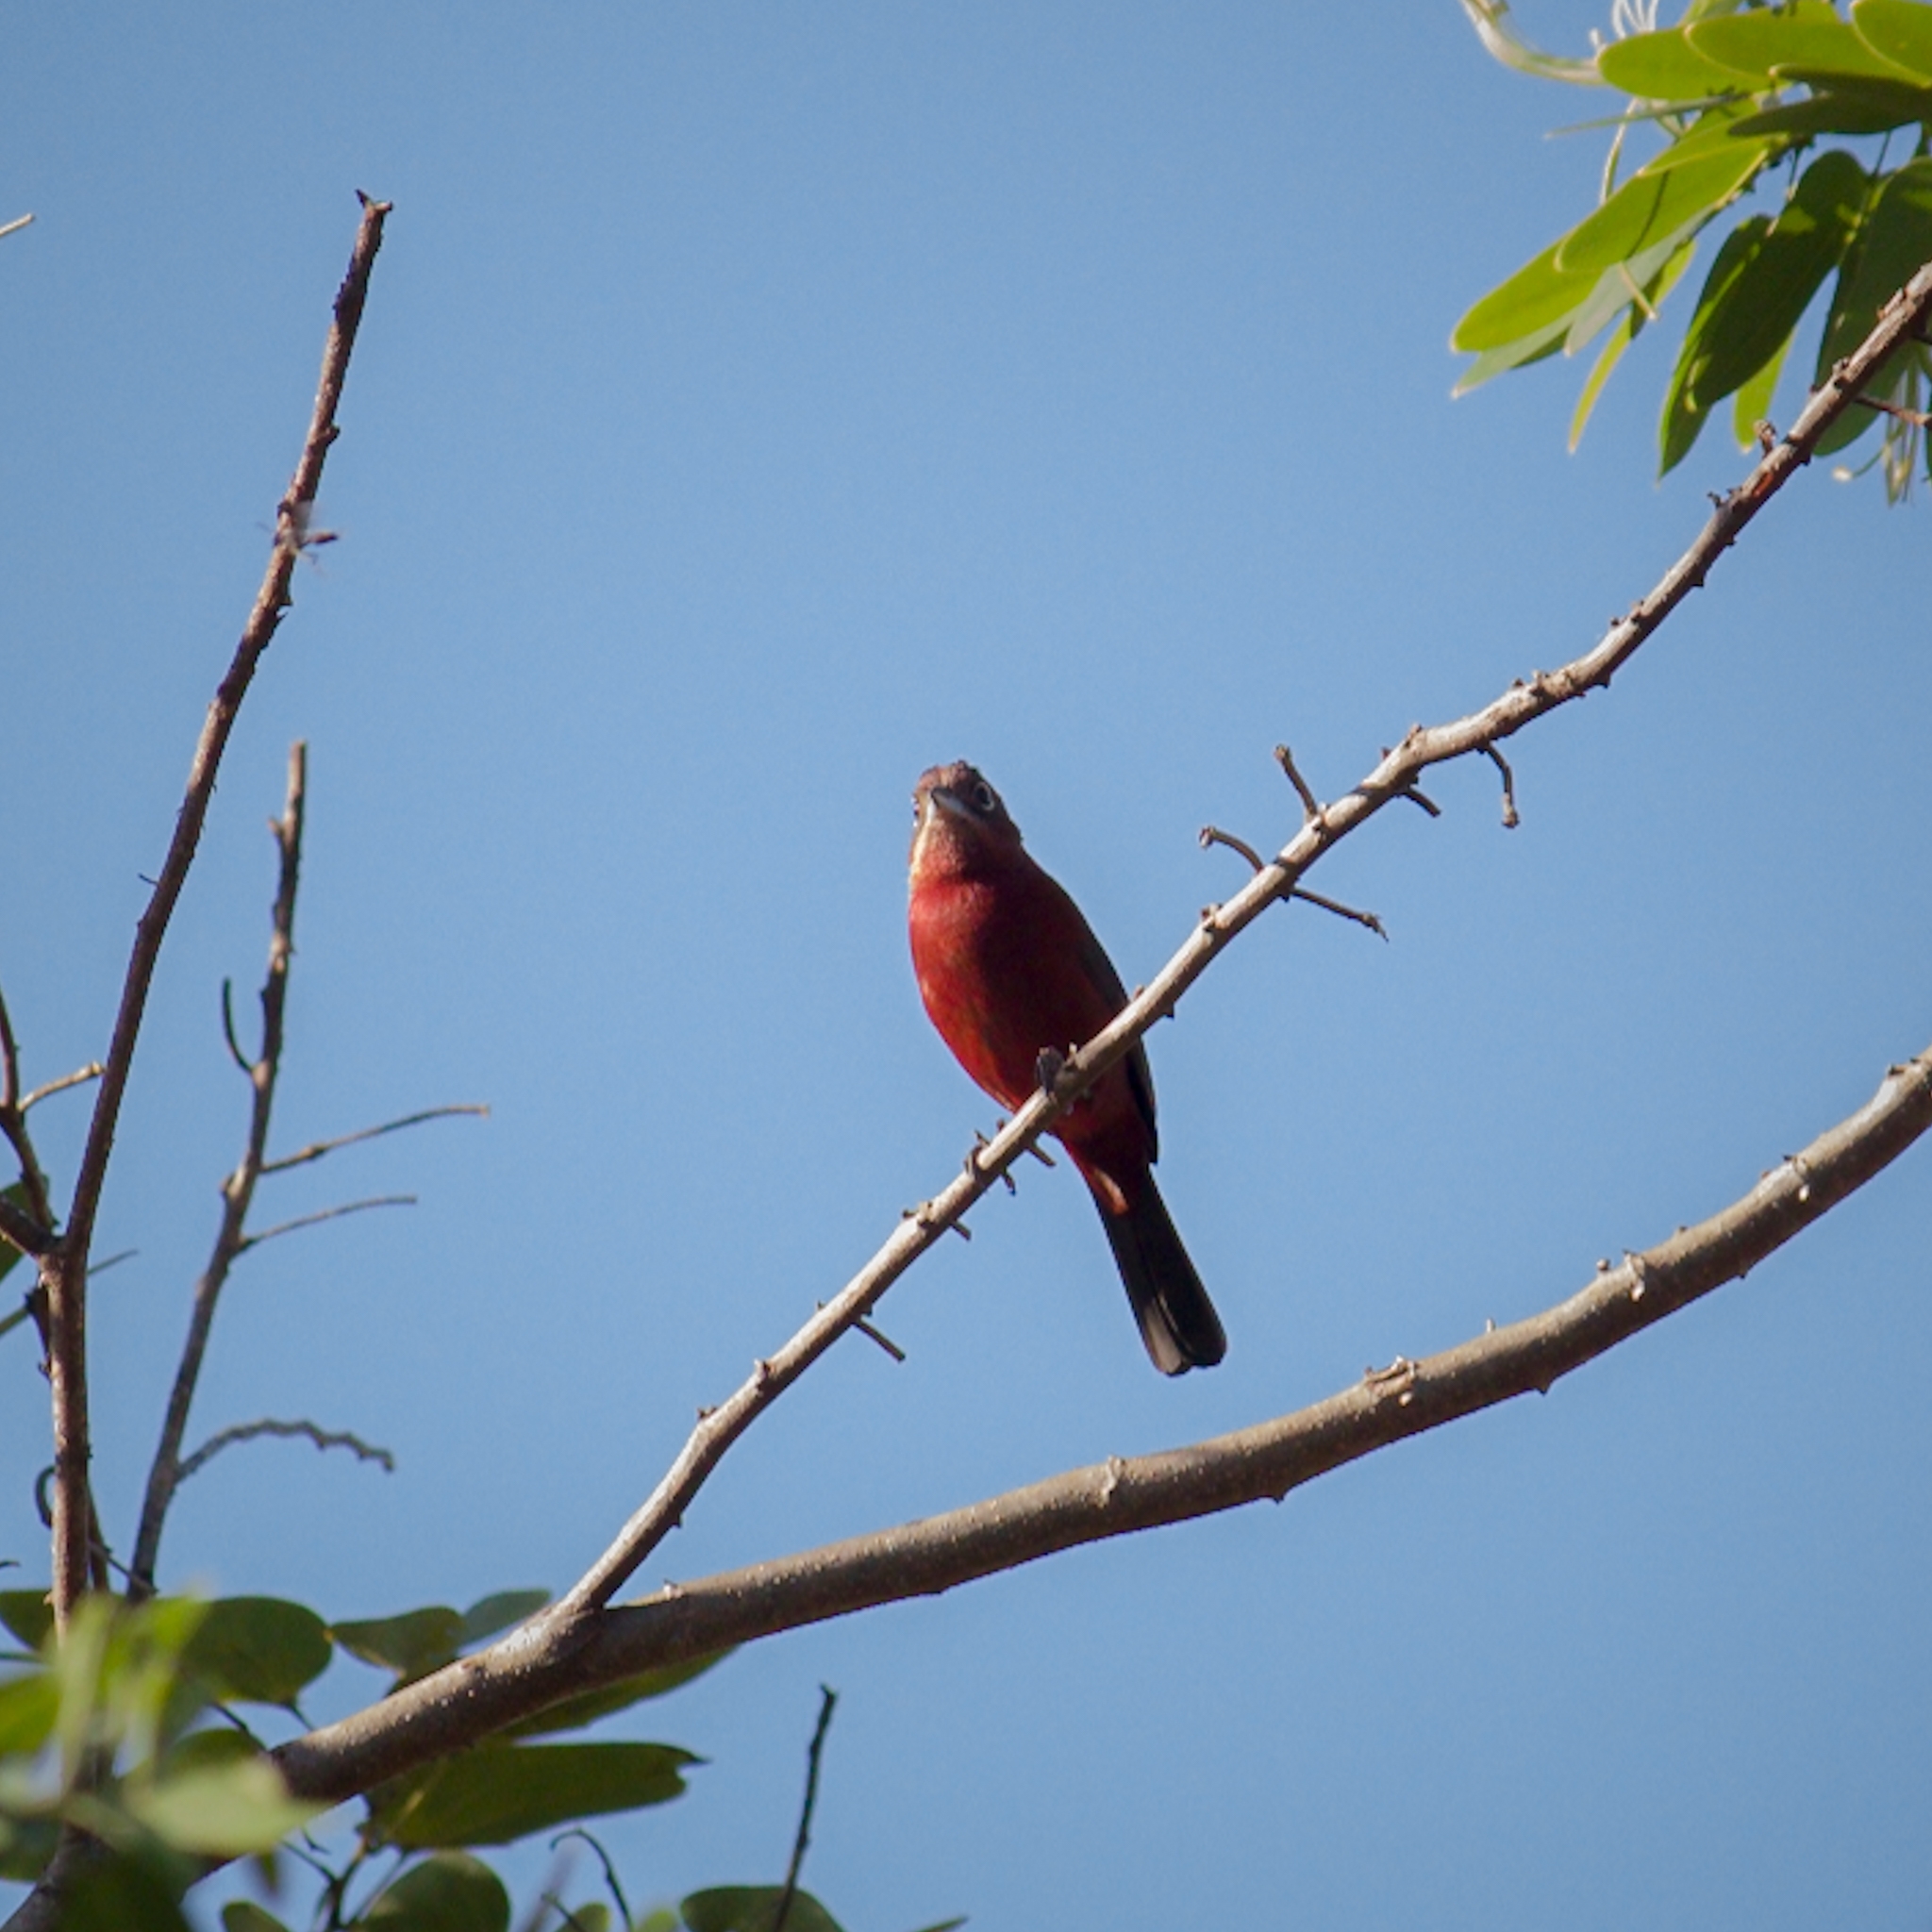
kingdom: Animalia
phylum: Chordata
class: Aves
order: Passeriformes
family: Thraupidae
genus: Coryphospingus
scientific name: Coryphospingus cucullatus
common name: Red pileated finch
